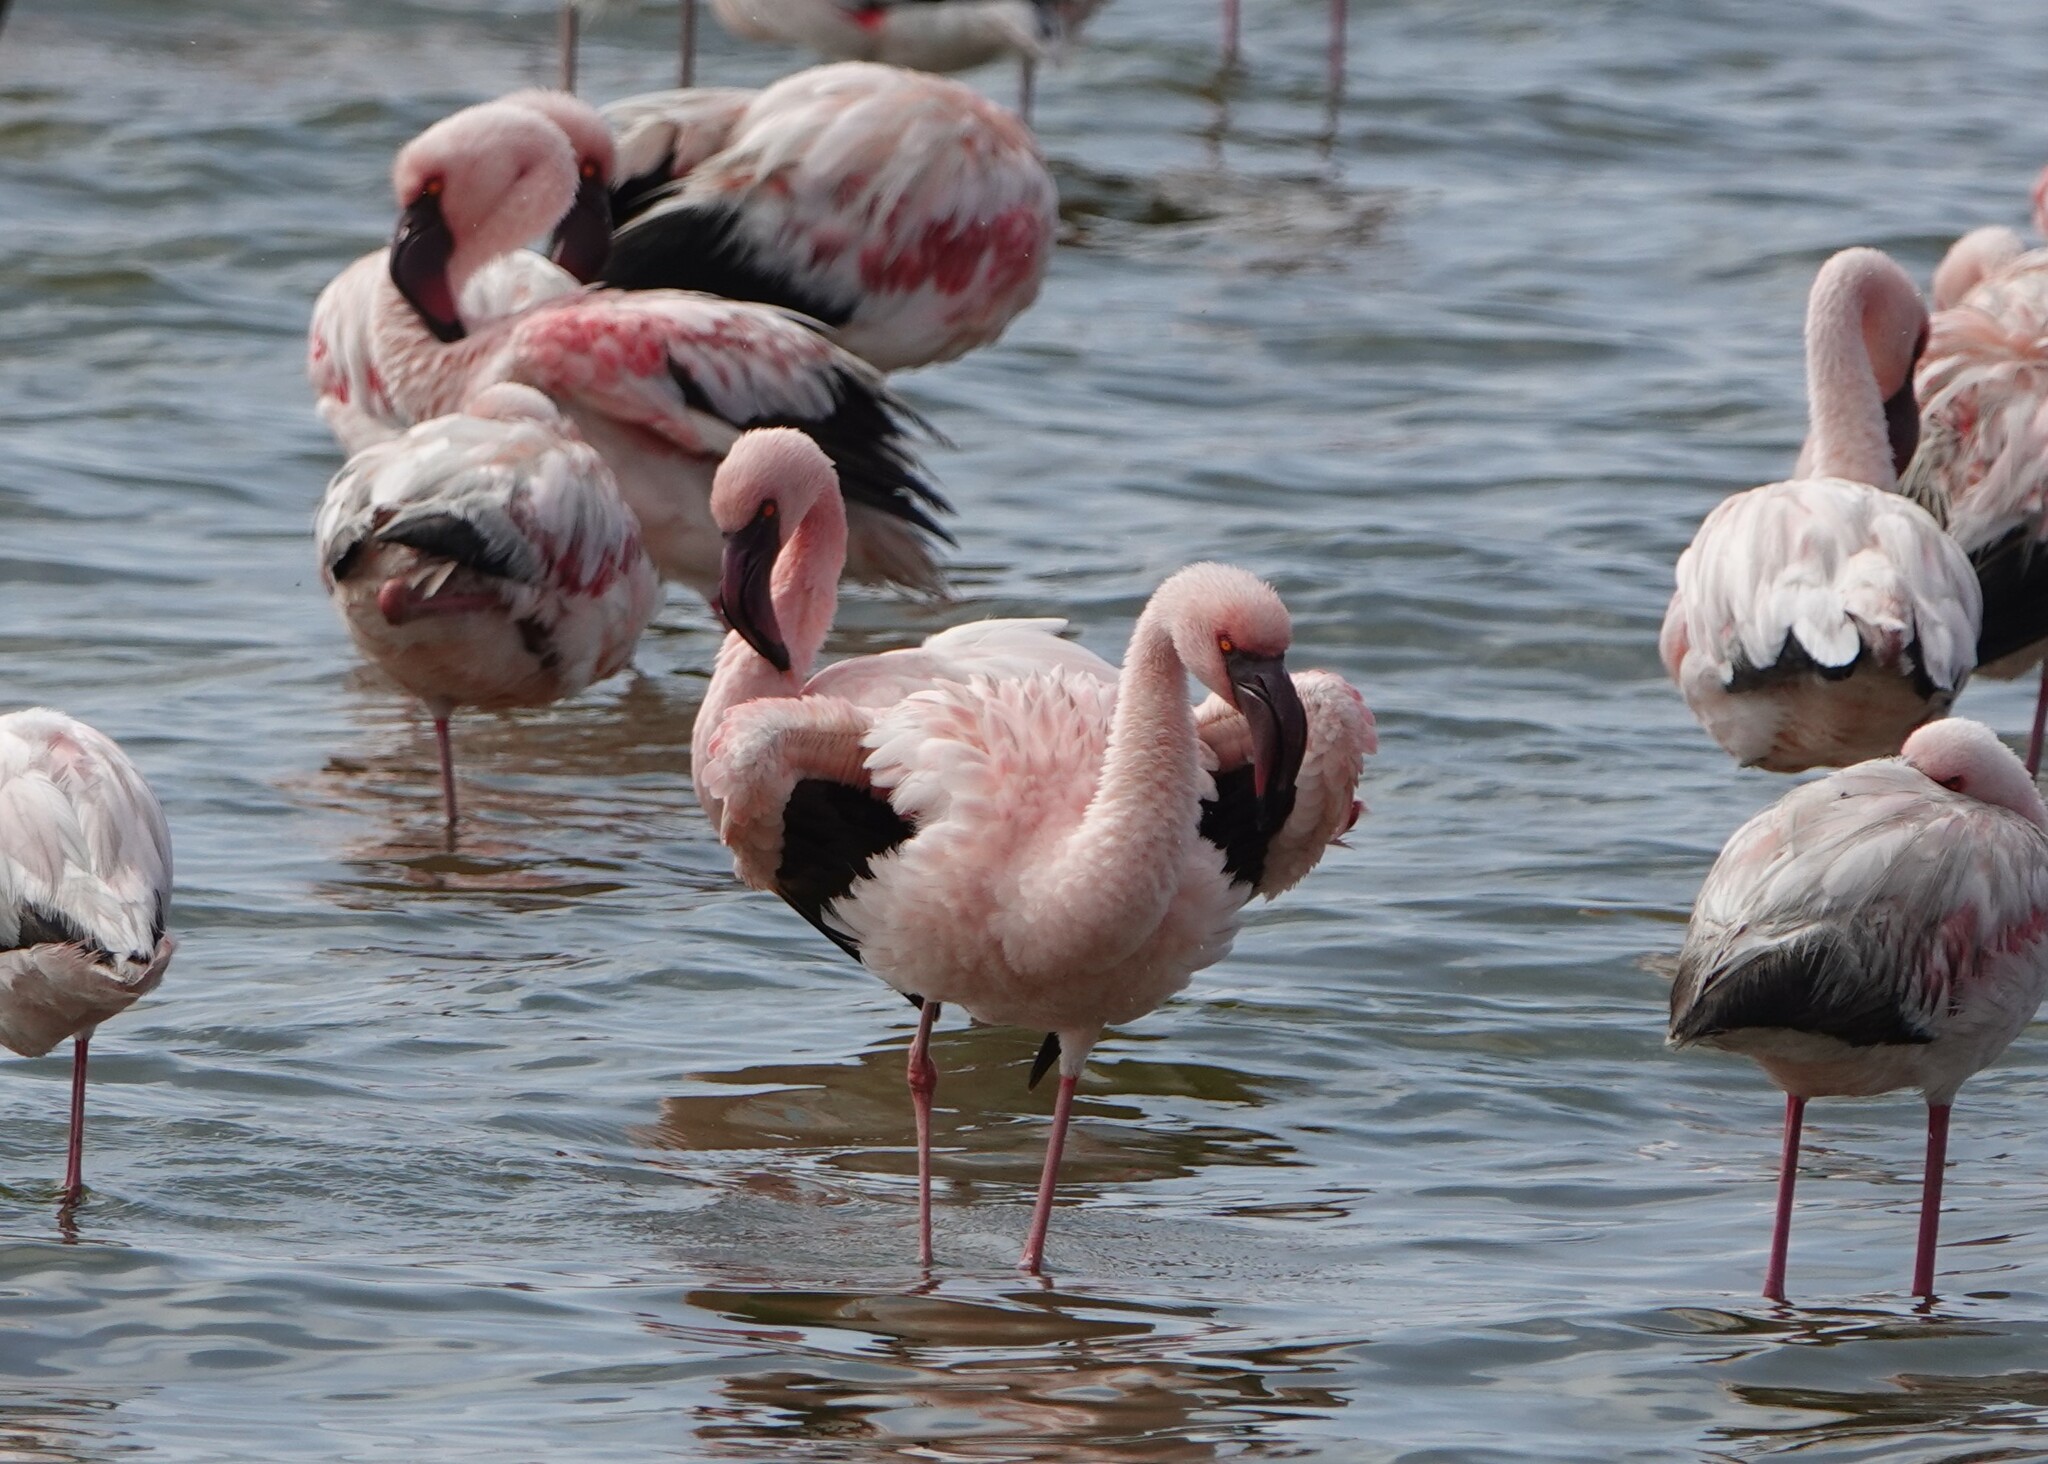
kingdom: Animalia
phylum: Chordata
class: Aves
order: Phoenicopteriformes
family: Phoenicopteridae
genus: Phoeniconaias
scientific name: Phoeniconaias minor
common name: Lesser flamingo
